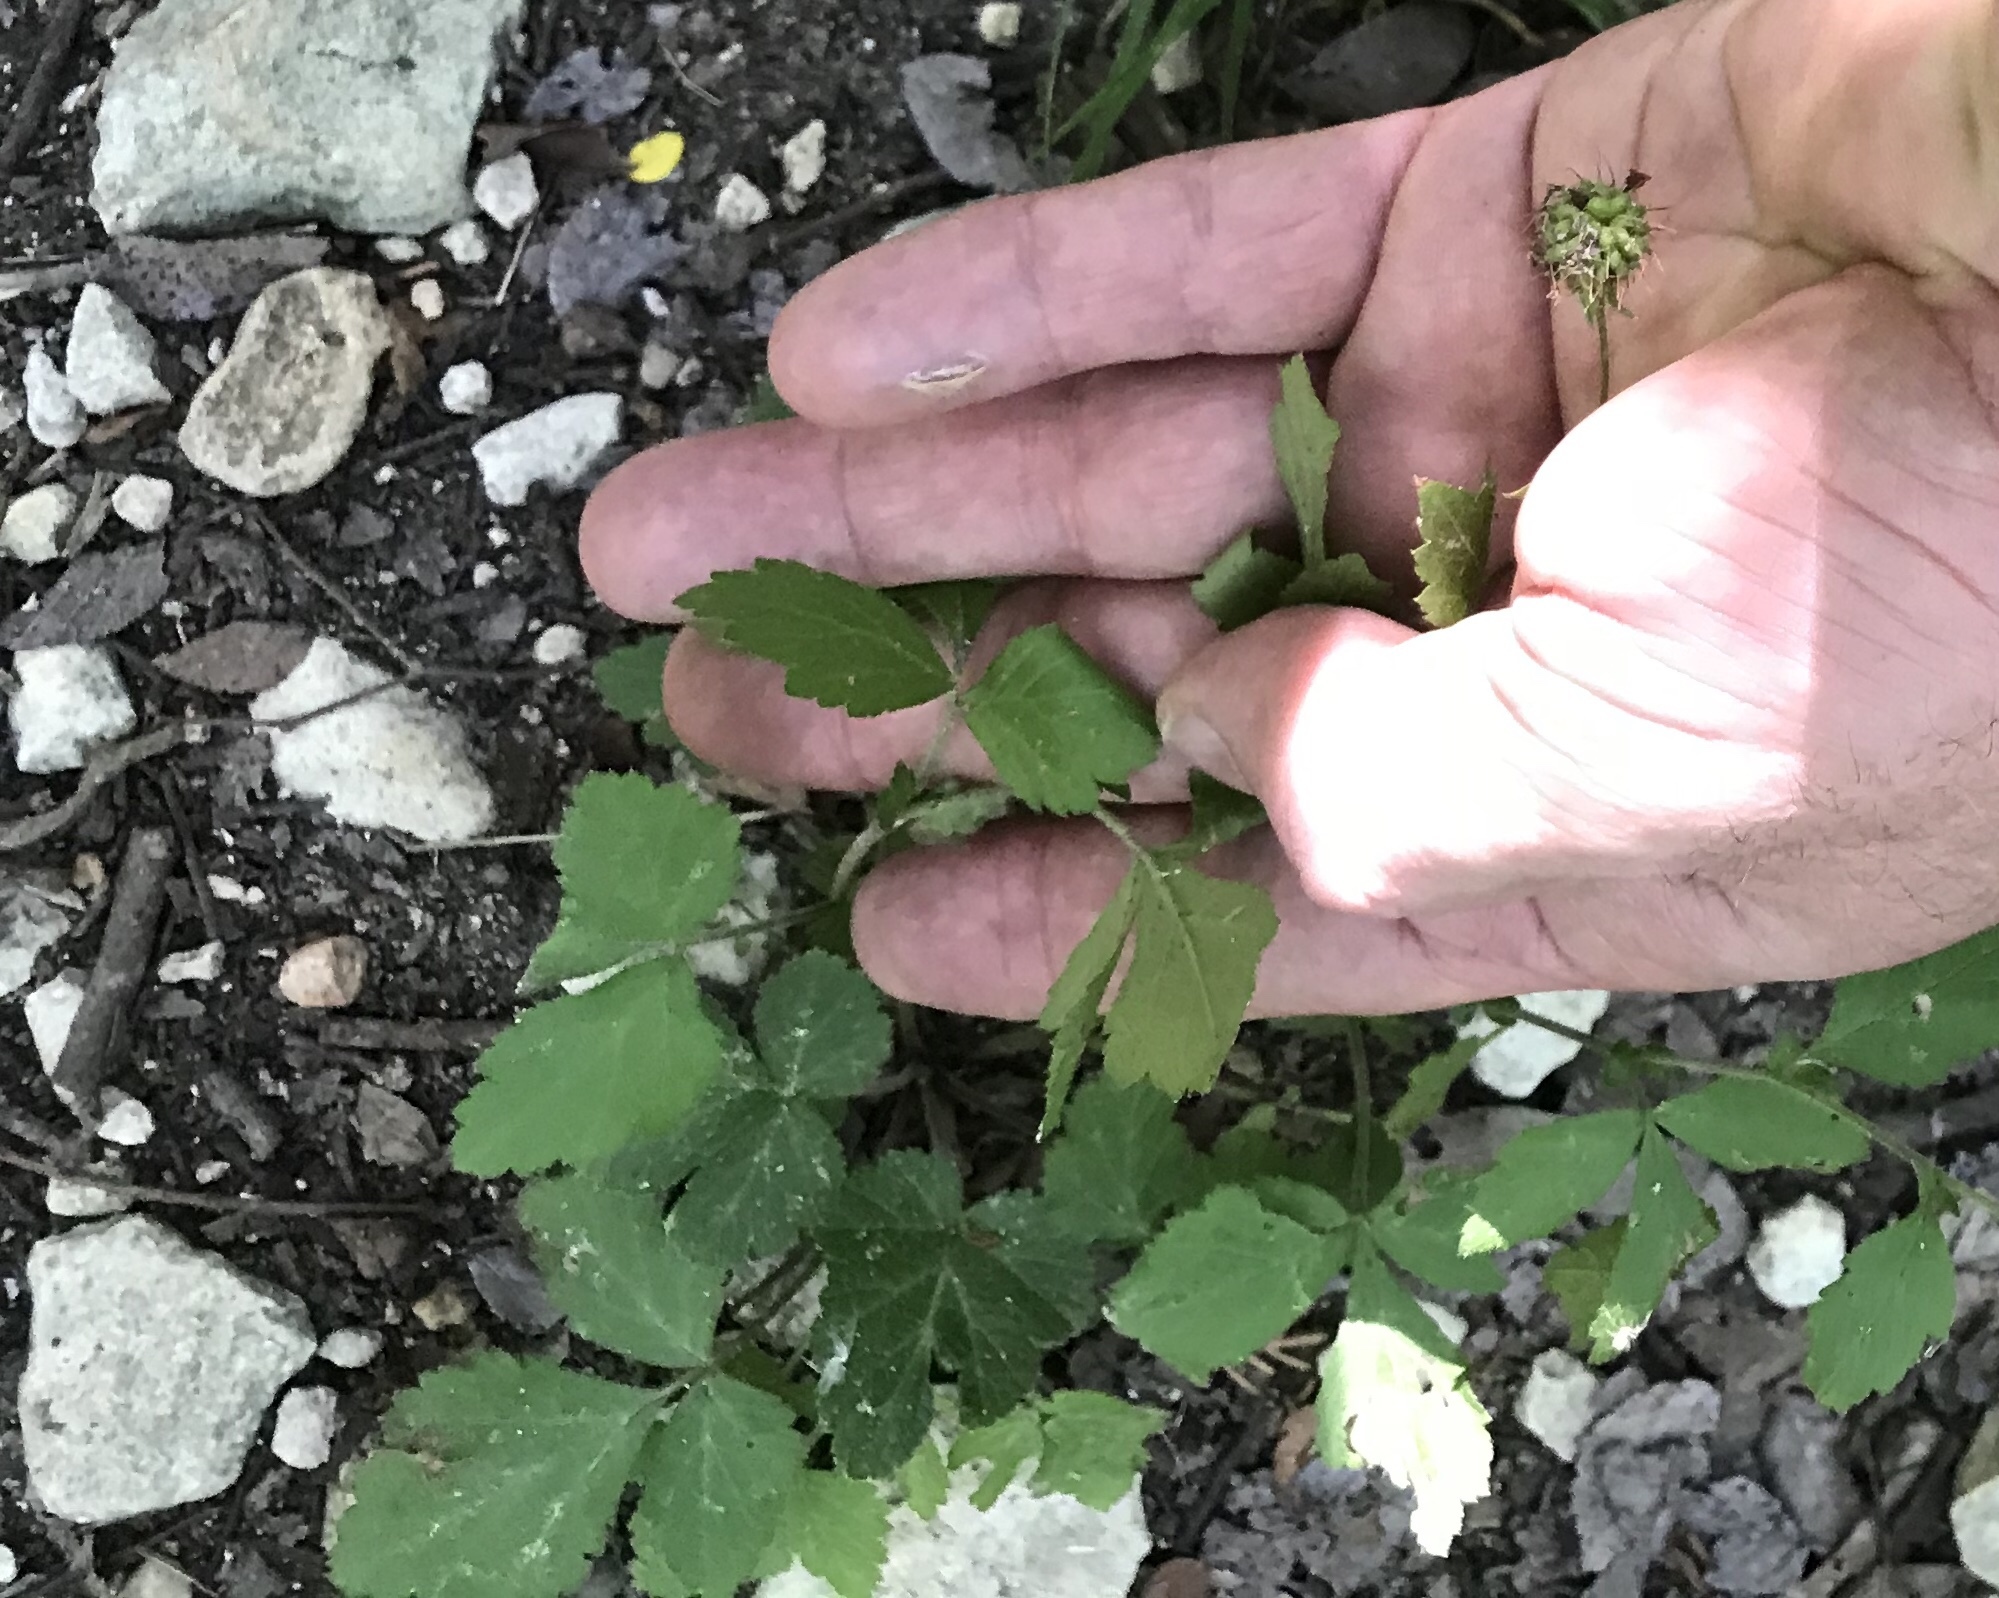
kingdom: Plantae
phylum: Tracheophyta
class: Magnoliopsida
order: Rosales
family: Rosaceae
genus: Geum
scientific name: Geum canadense
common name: White avens
